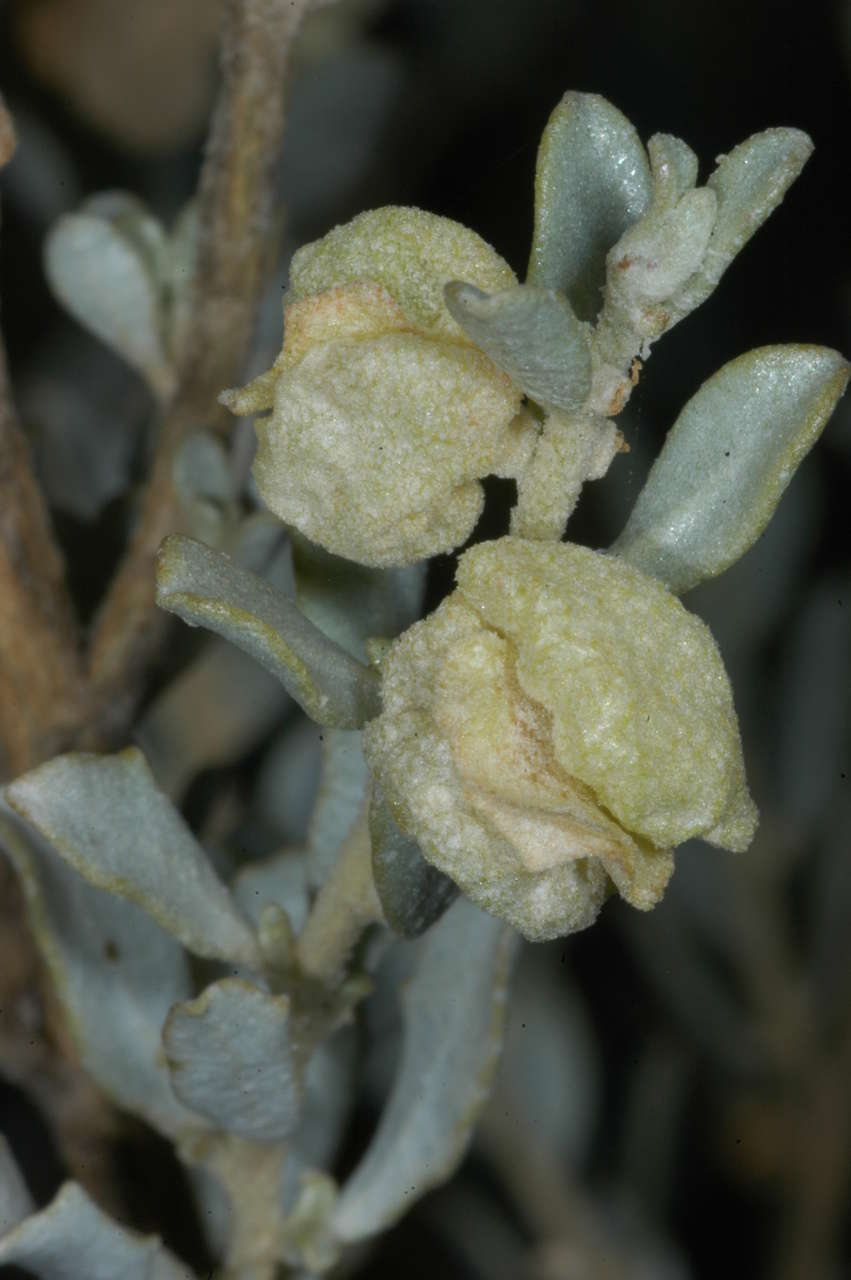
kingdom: Plantae
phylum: Tracheophyta
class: Magnoliopsida
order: Caryophyllales
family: Amaranthaceae
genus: Atriplex
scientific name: Atriplex vesicaria
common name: Aboriginal saltbush
